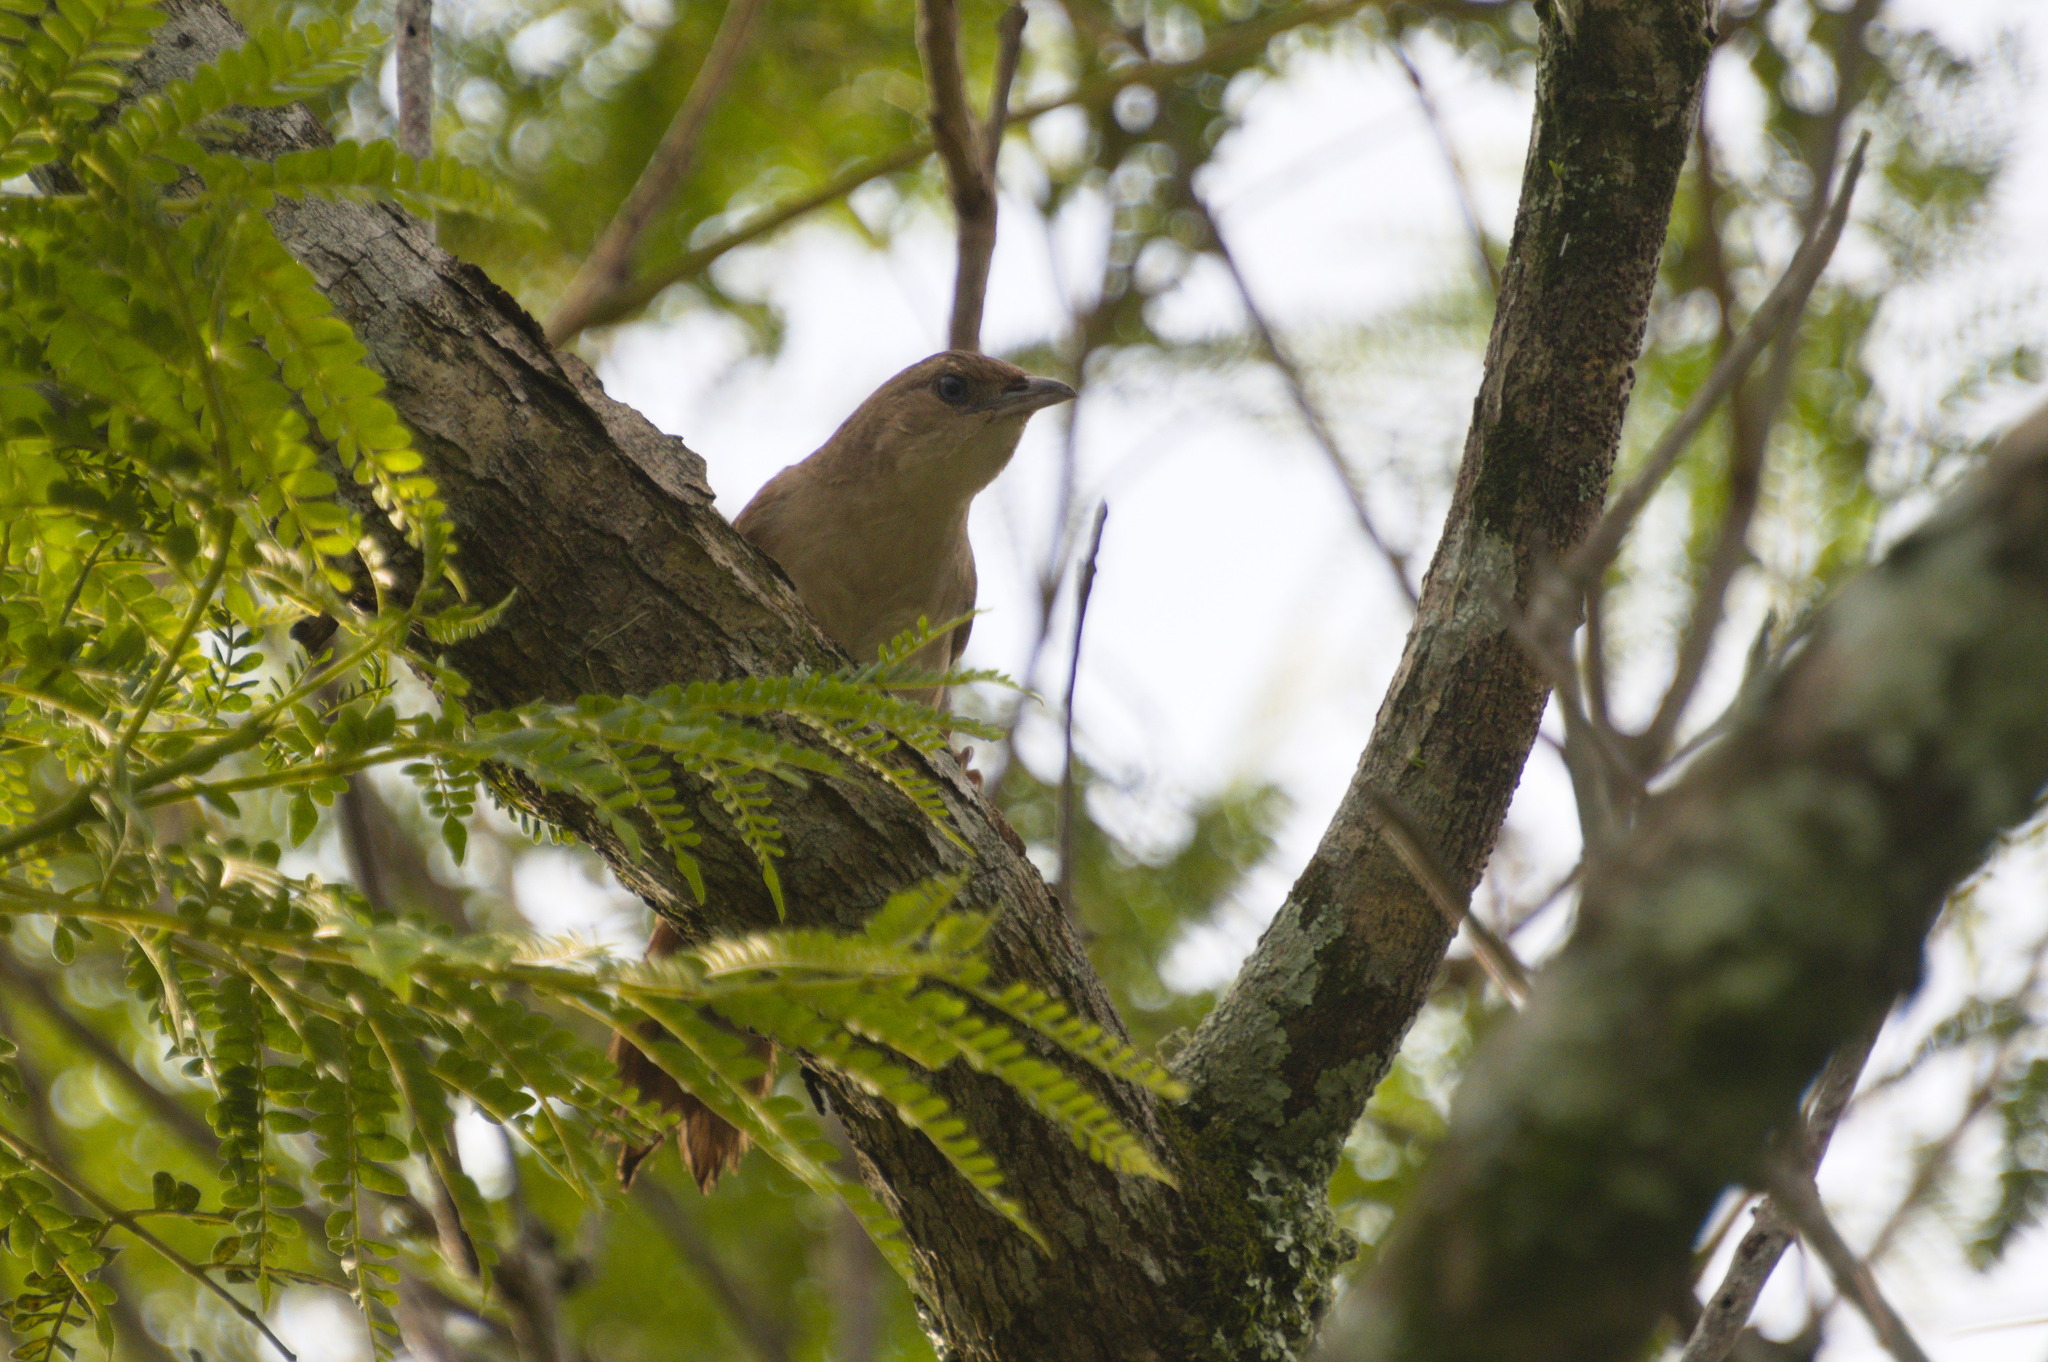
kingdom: Animalia
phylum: Chordata
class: Aves
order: Passeriformes
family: Furnariidae
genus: Phacellodomus
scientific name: Phacellodomus inornatus
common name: Plain thornbird
